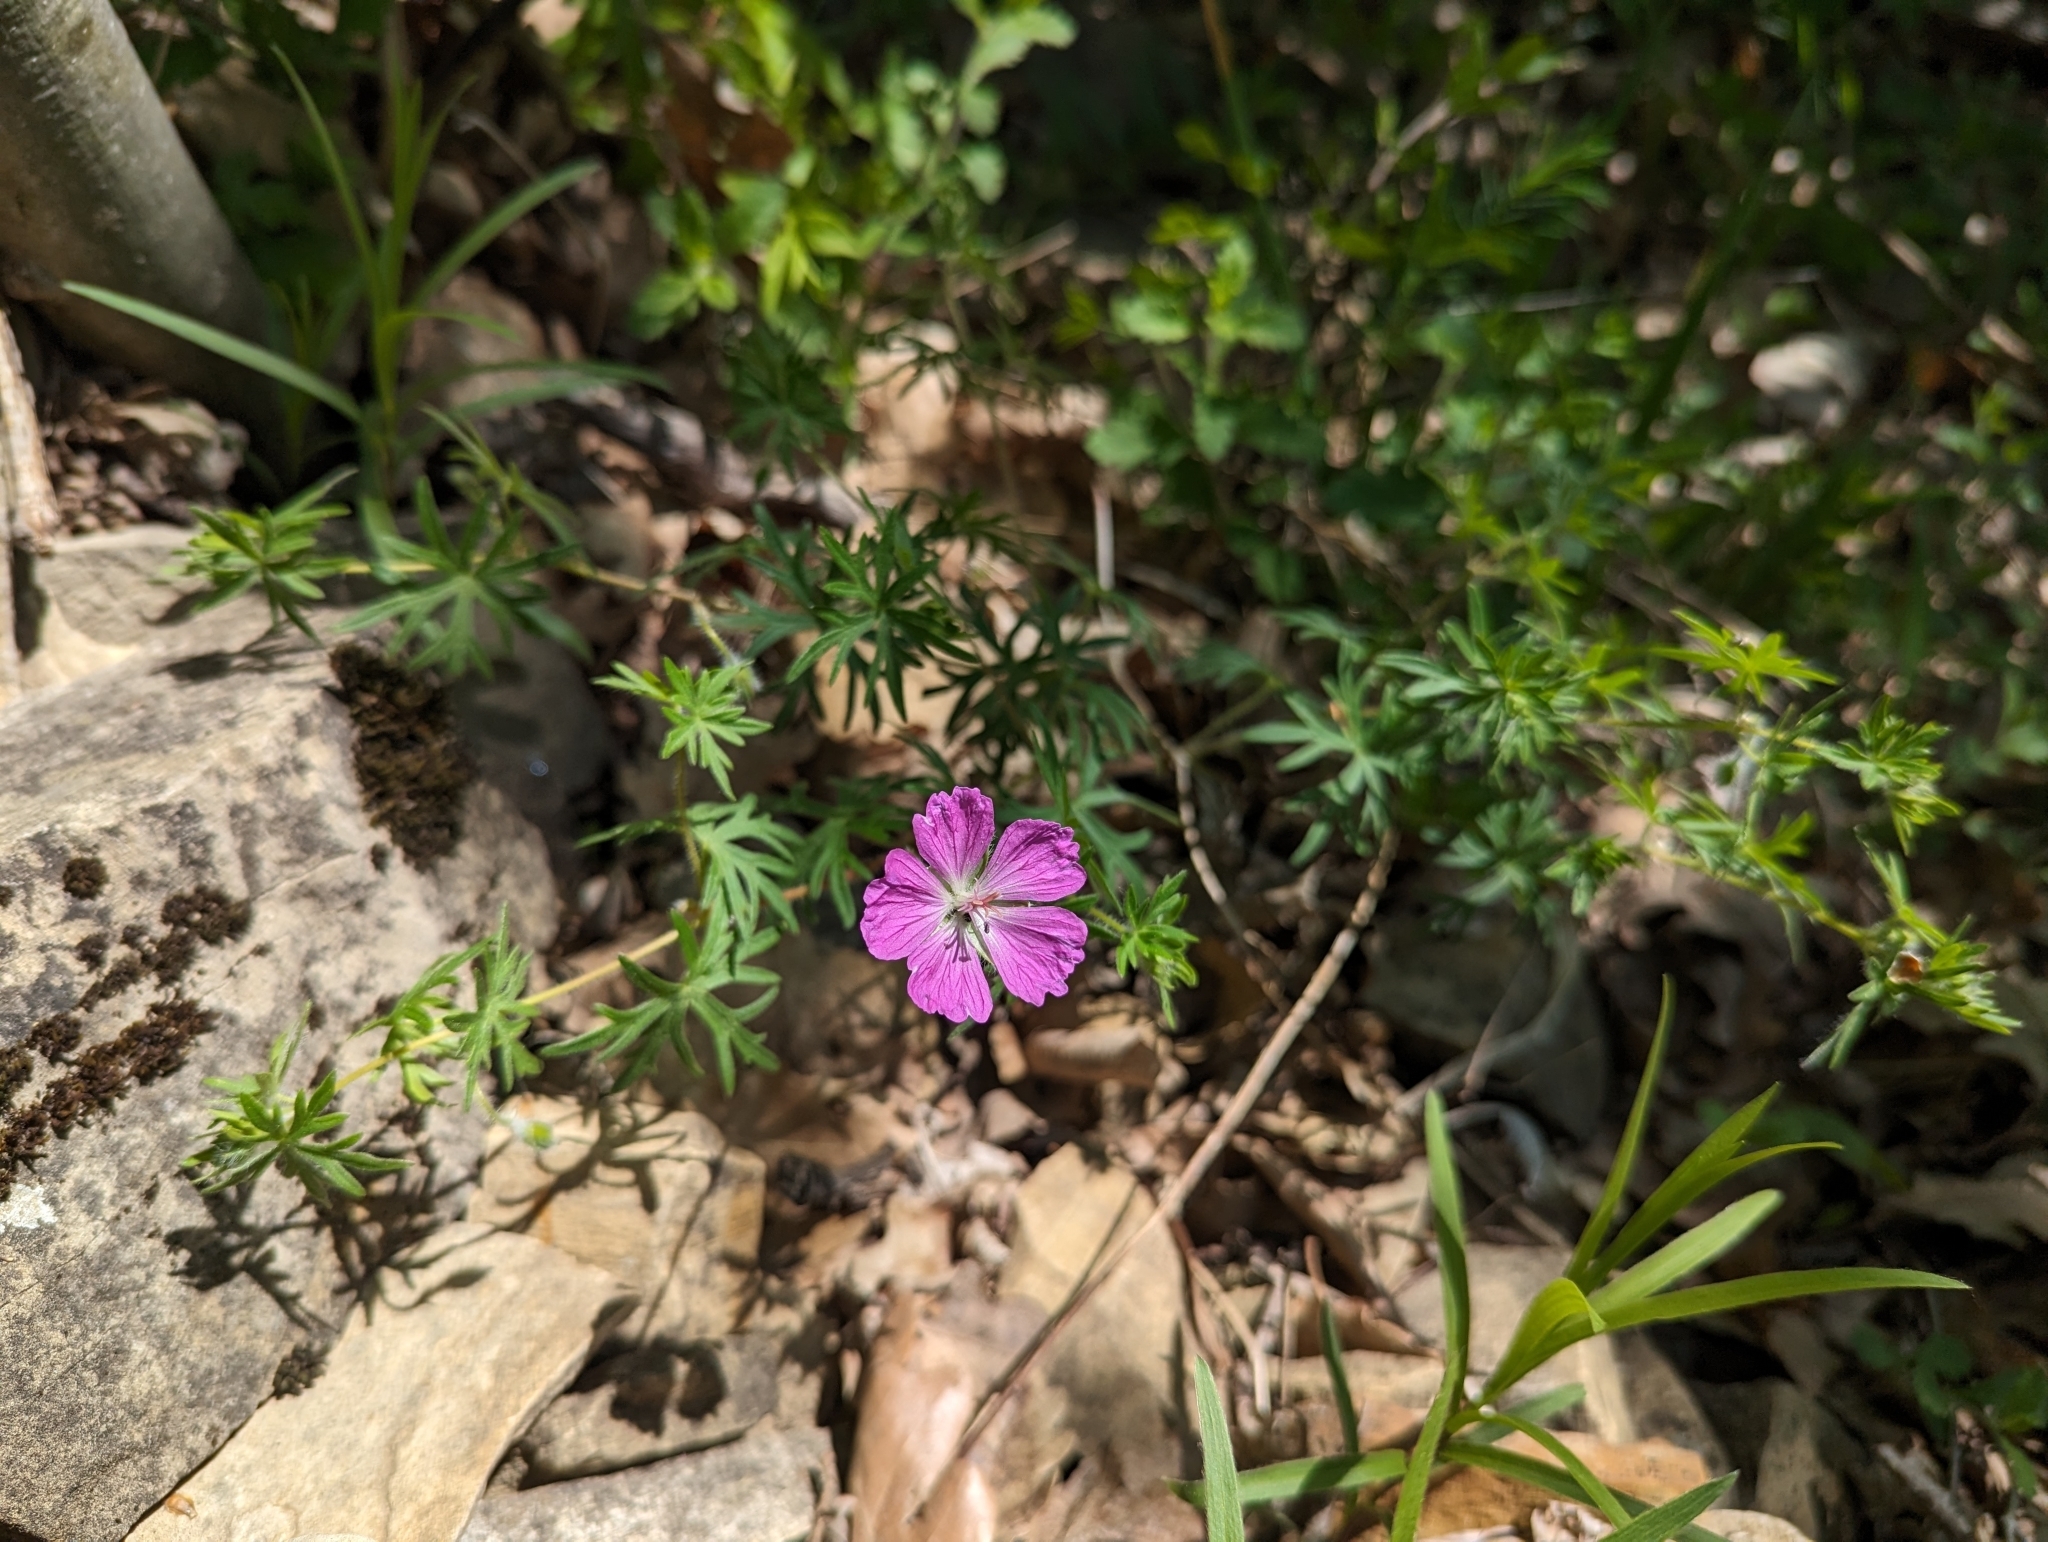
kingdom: Plantae
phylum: Tracheophyta
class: Magnoliopsida
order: Geraniales
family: Geraniaceae
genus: Geranium
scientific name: Geranium sanguineum
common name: Bloody crane's-bill
